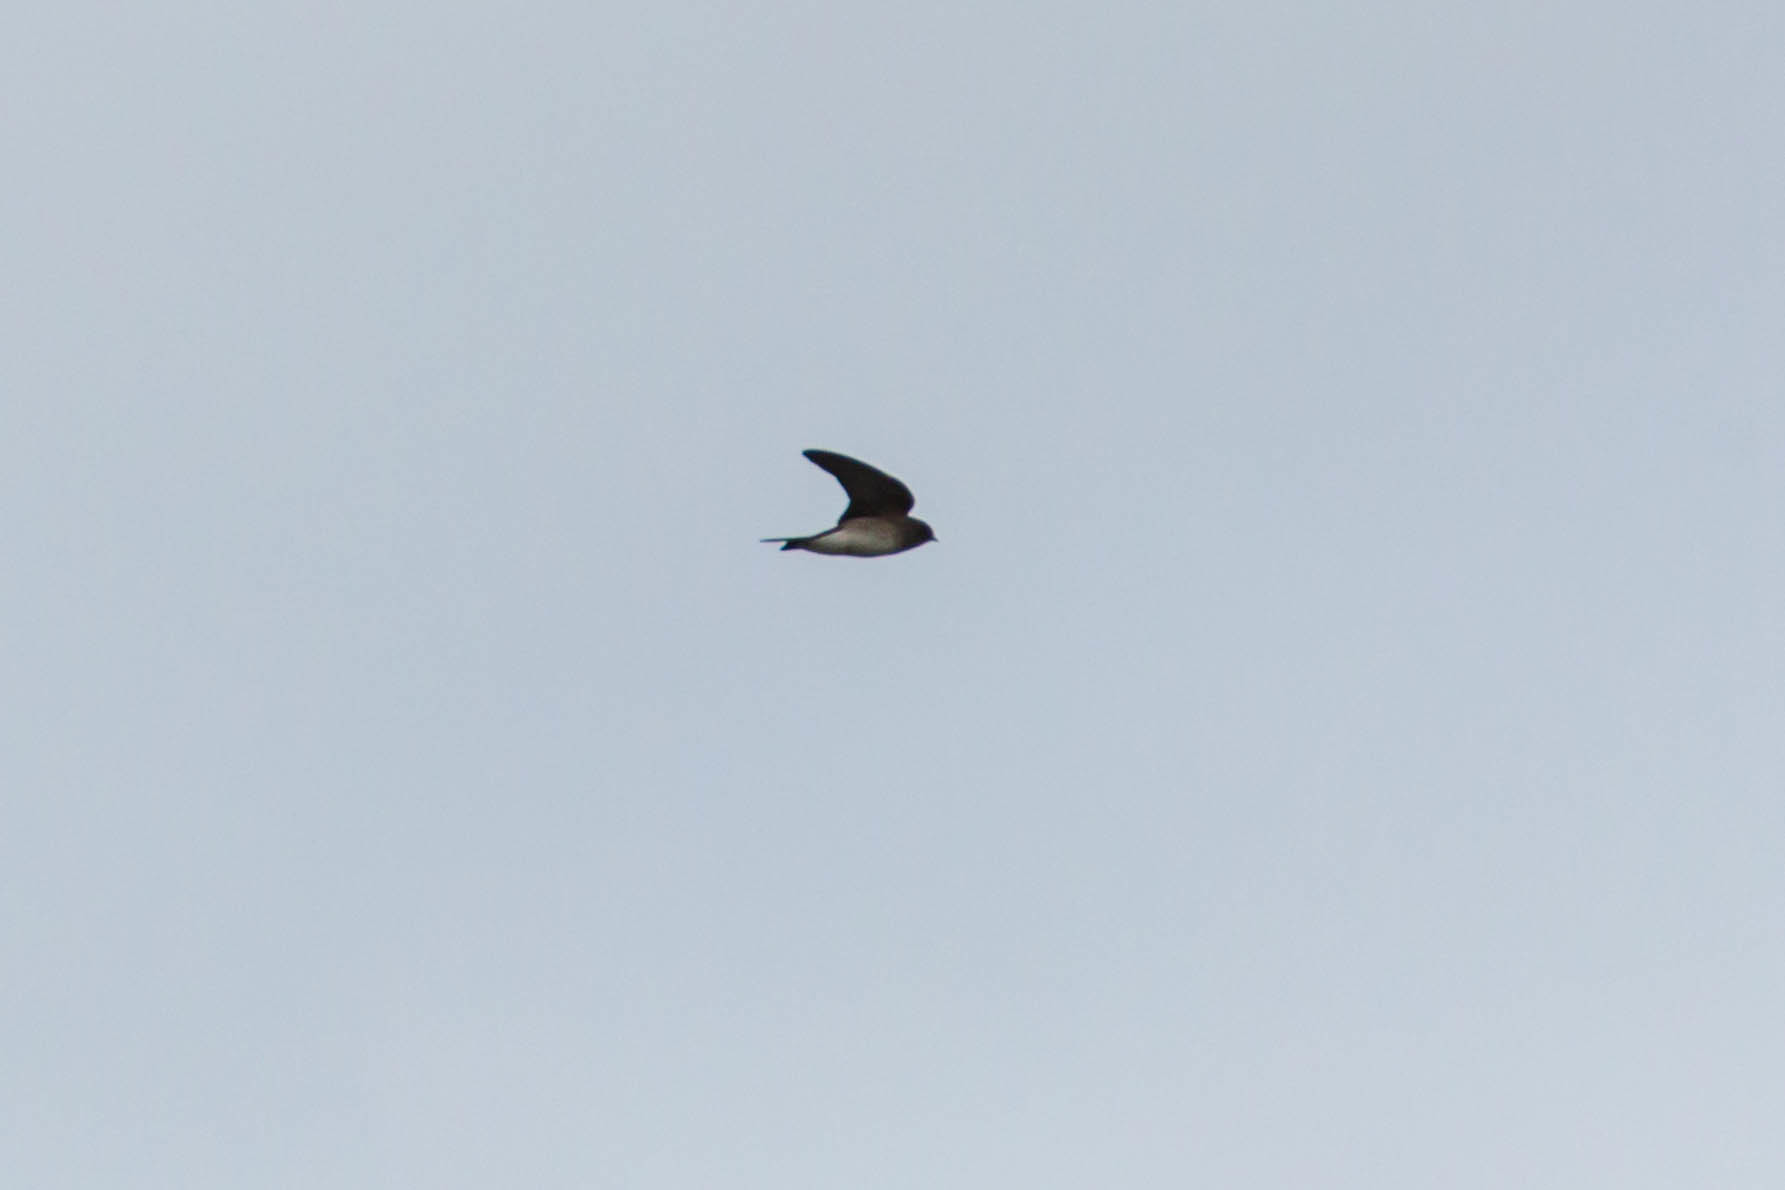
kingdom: Animalia
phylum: Chordata
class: Aves
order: Passeriformes
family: Hirundinidae
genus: Stelgidopteryx
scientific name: Stelgidopteryx serripennis
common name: Northern rough-winged swallow
